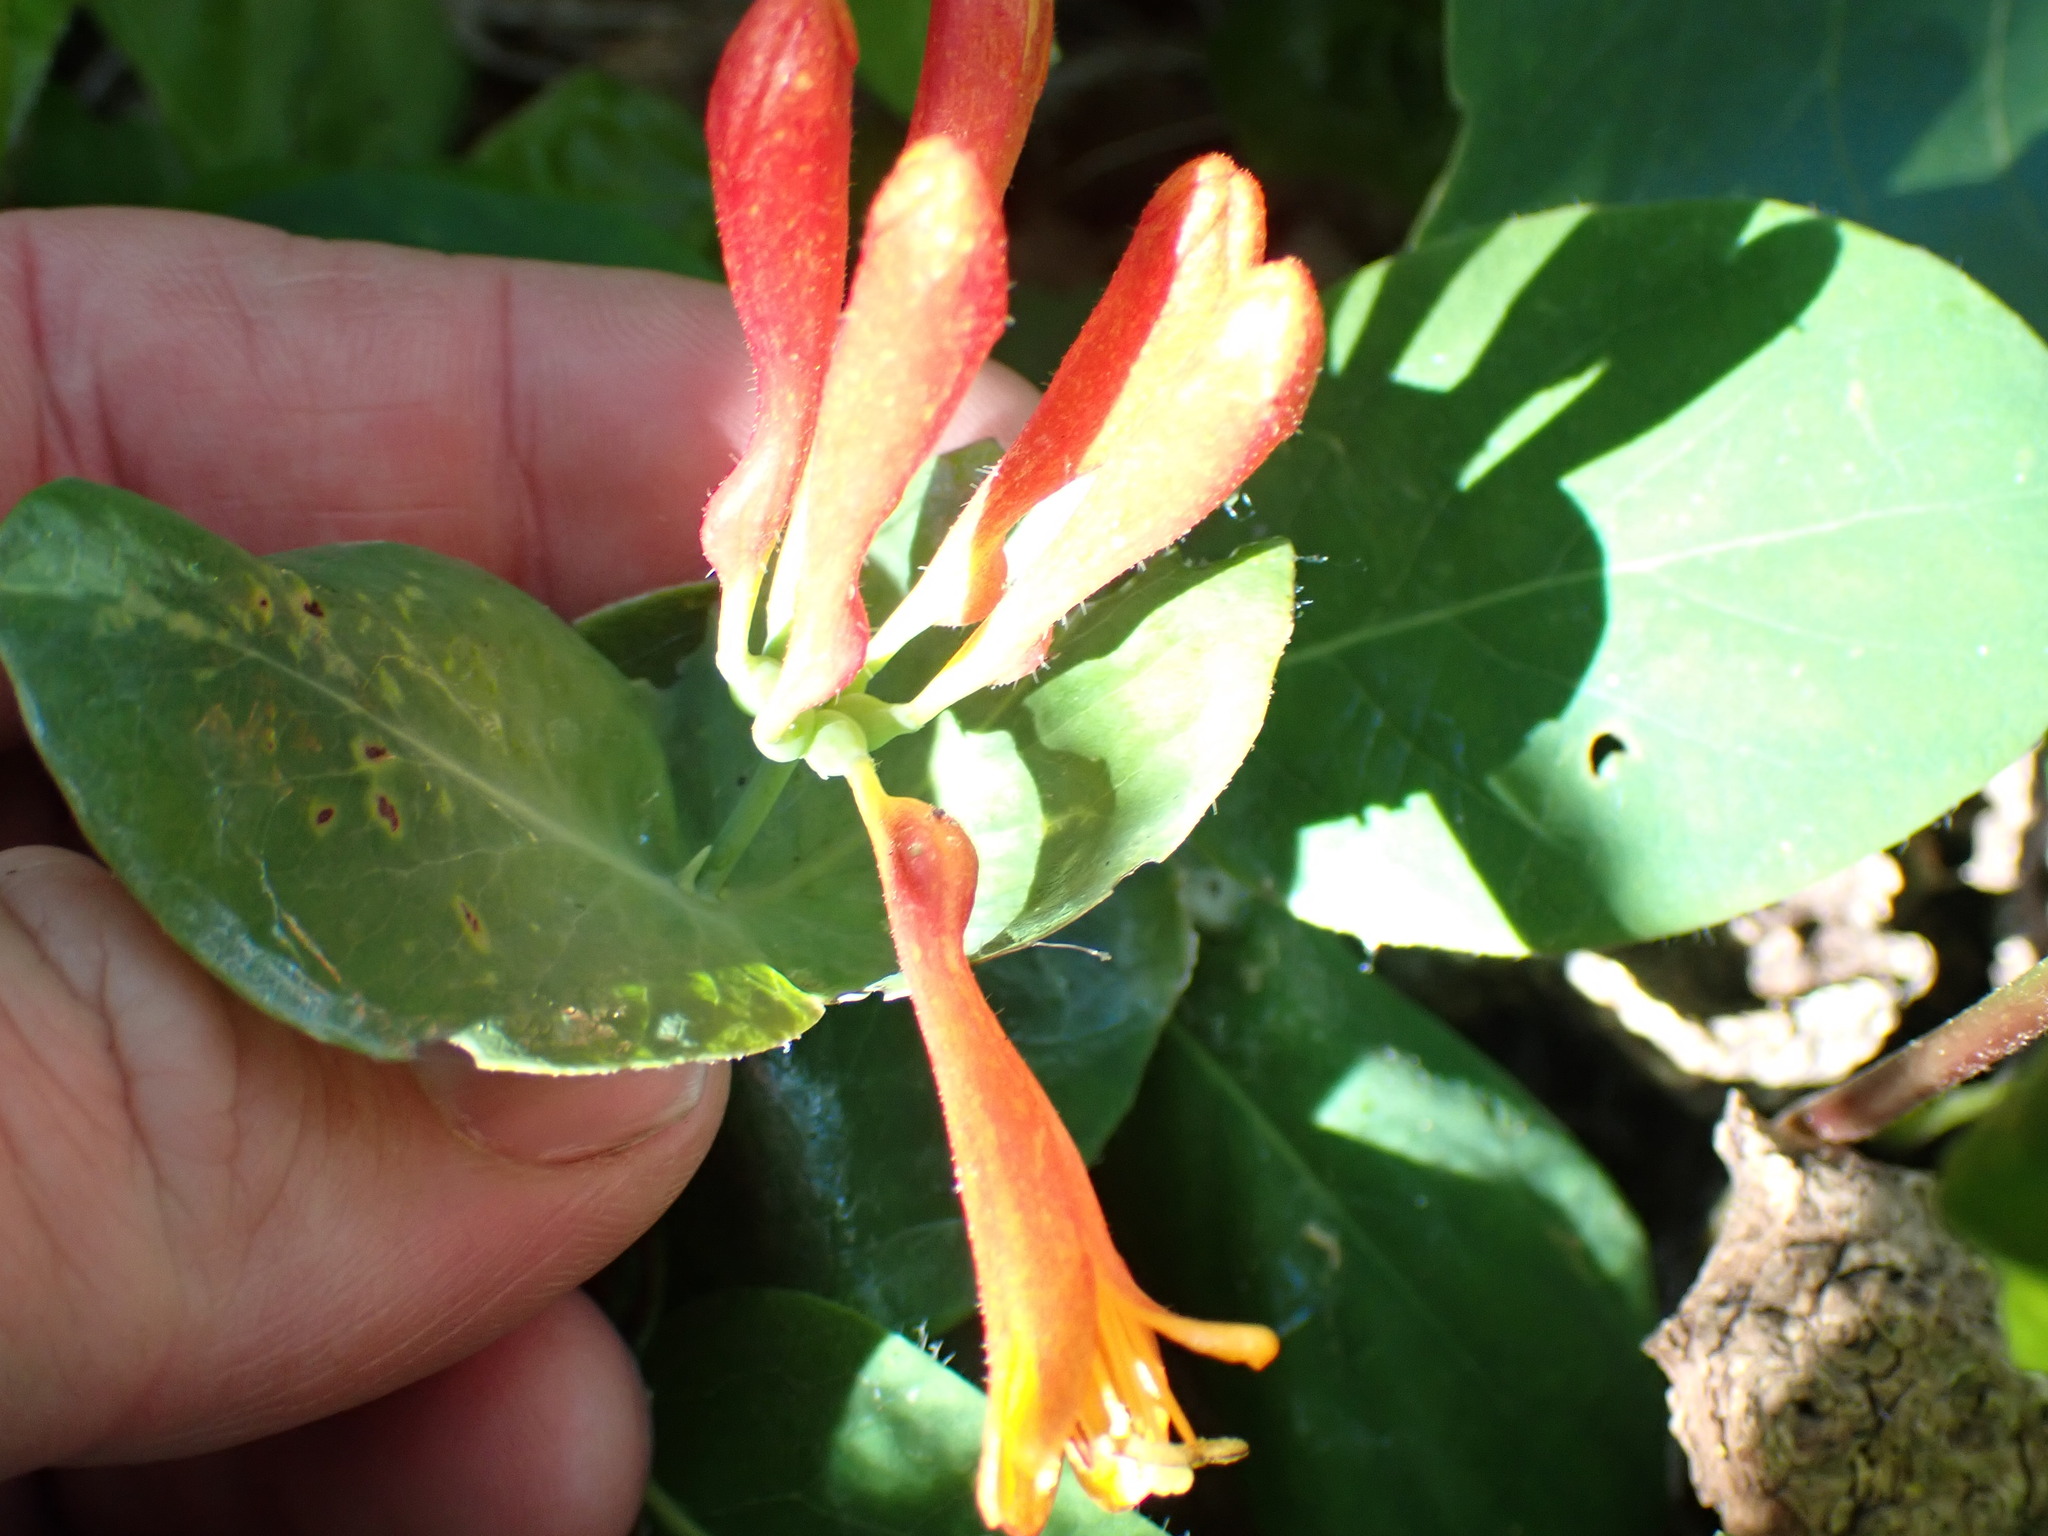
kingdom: Plantae
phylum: Tracheophyta
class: Magnoliopsida
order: Dipsacales
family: Caprifoliaceae
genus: Lonicera
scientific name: Lonicera ciliosa
